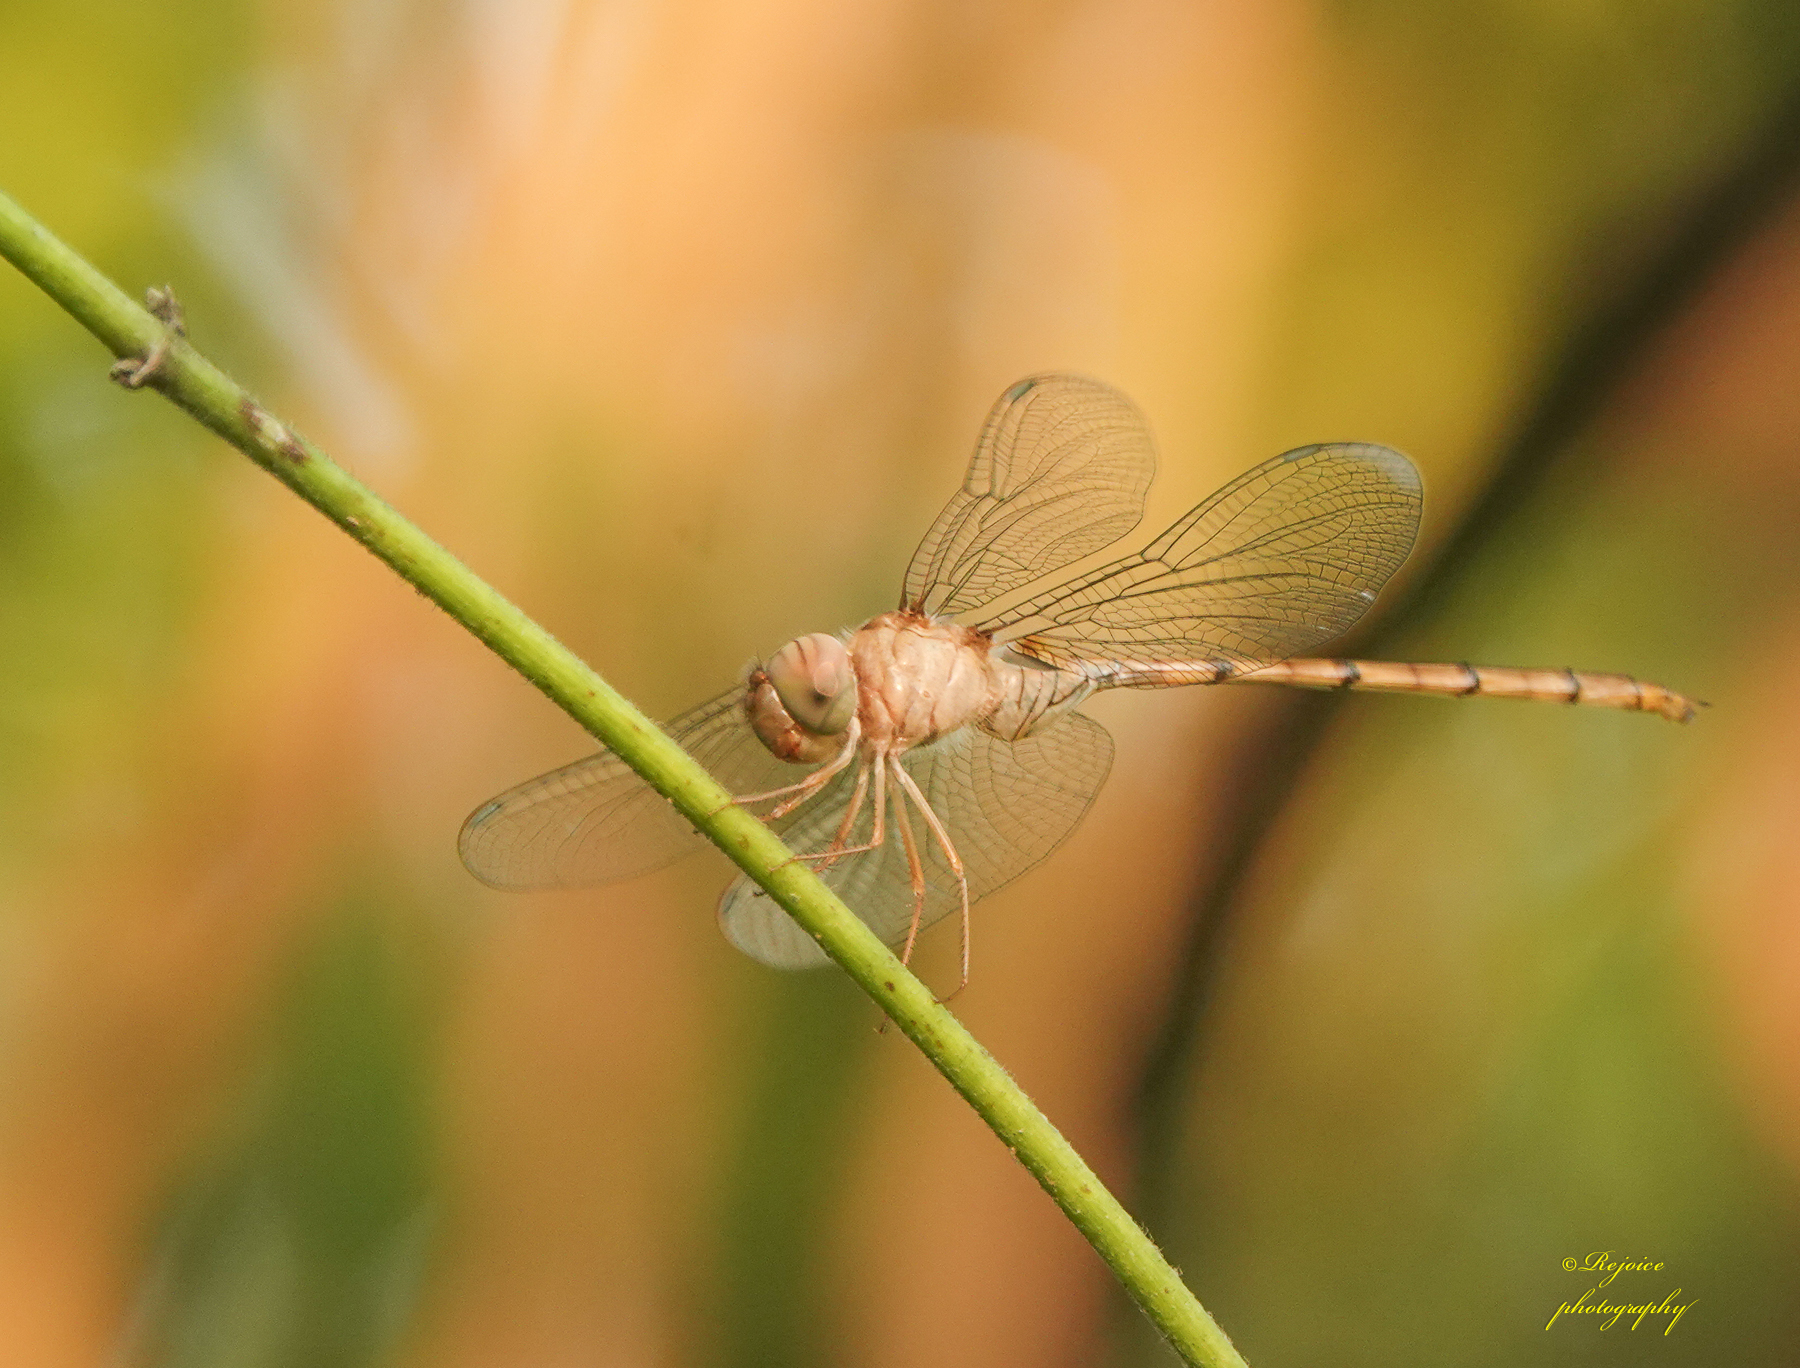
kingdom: Animalia
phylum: Arthropoda
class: Insecta
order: Odonata
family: Libellulidae
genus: Zyxomma
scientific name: Zyxomma petiolatum
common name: Dingy dusk-darter
